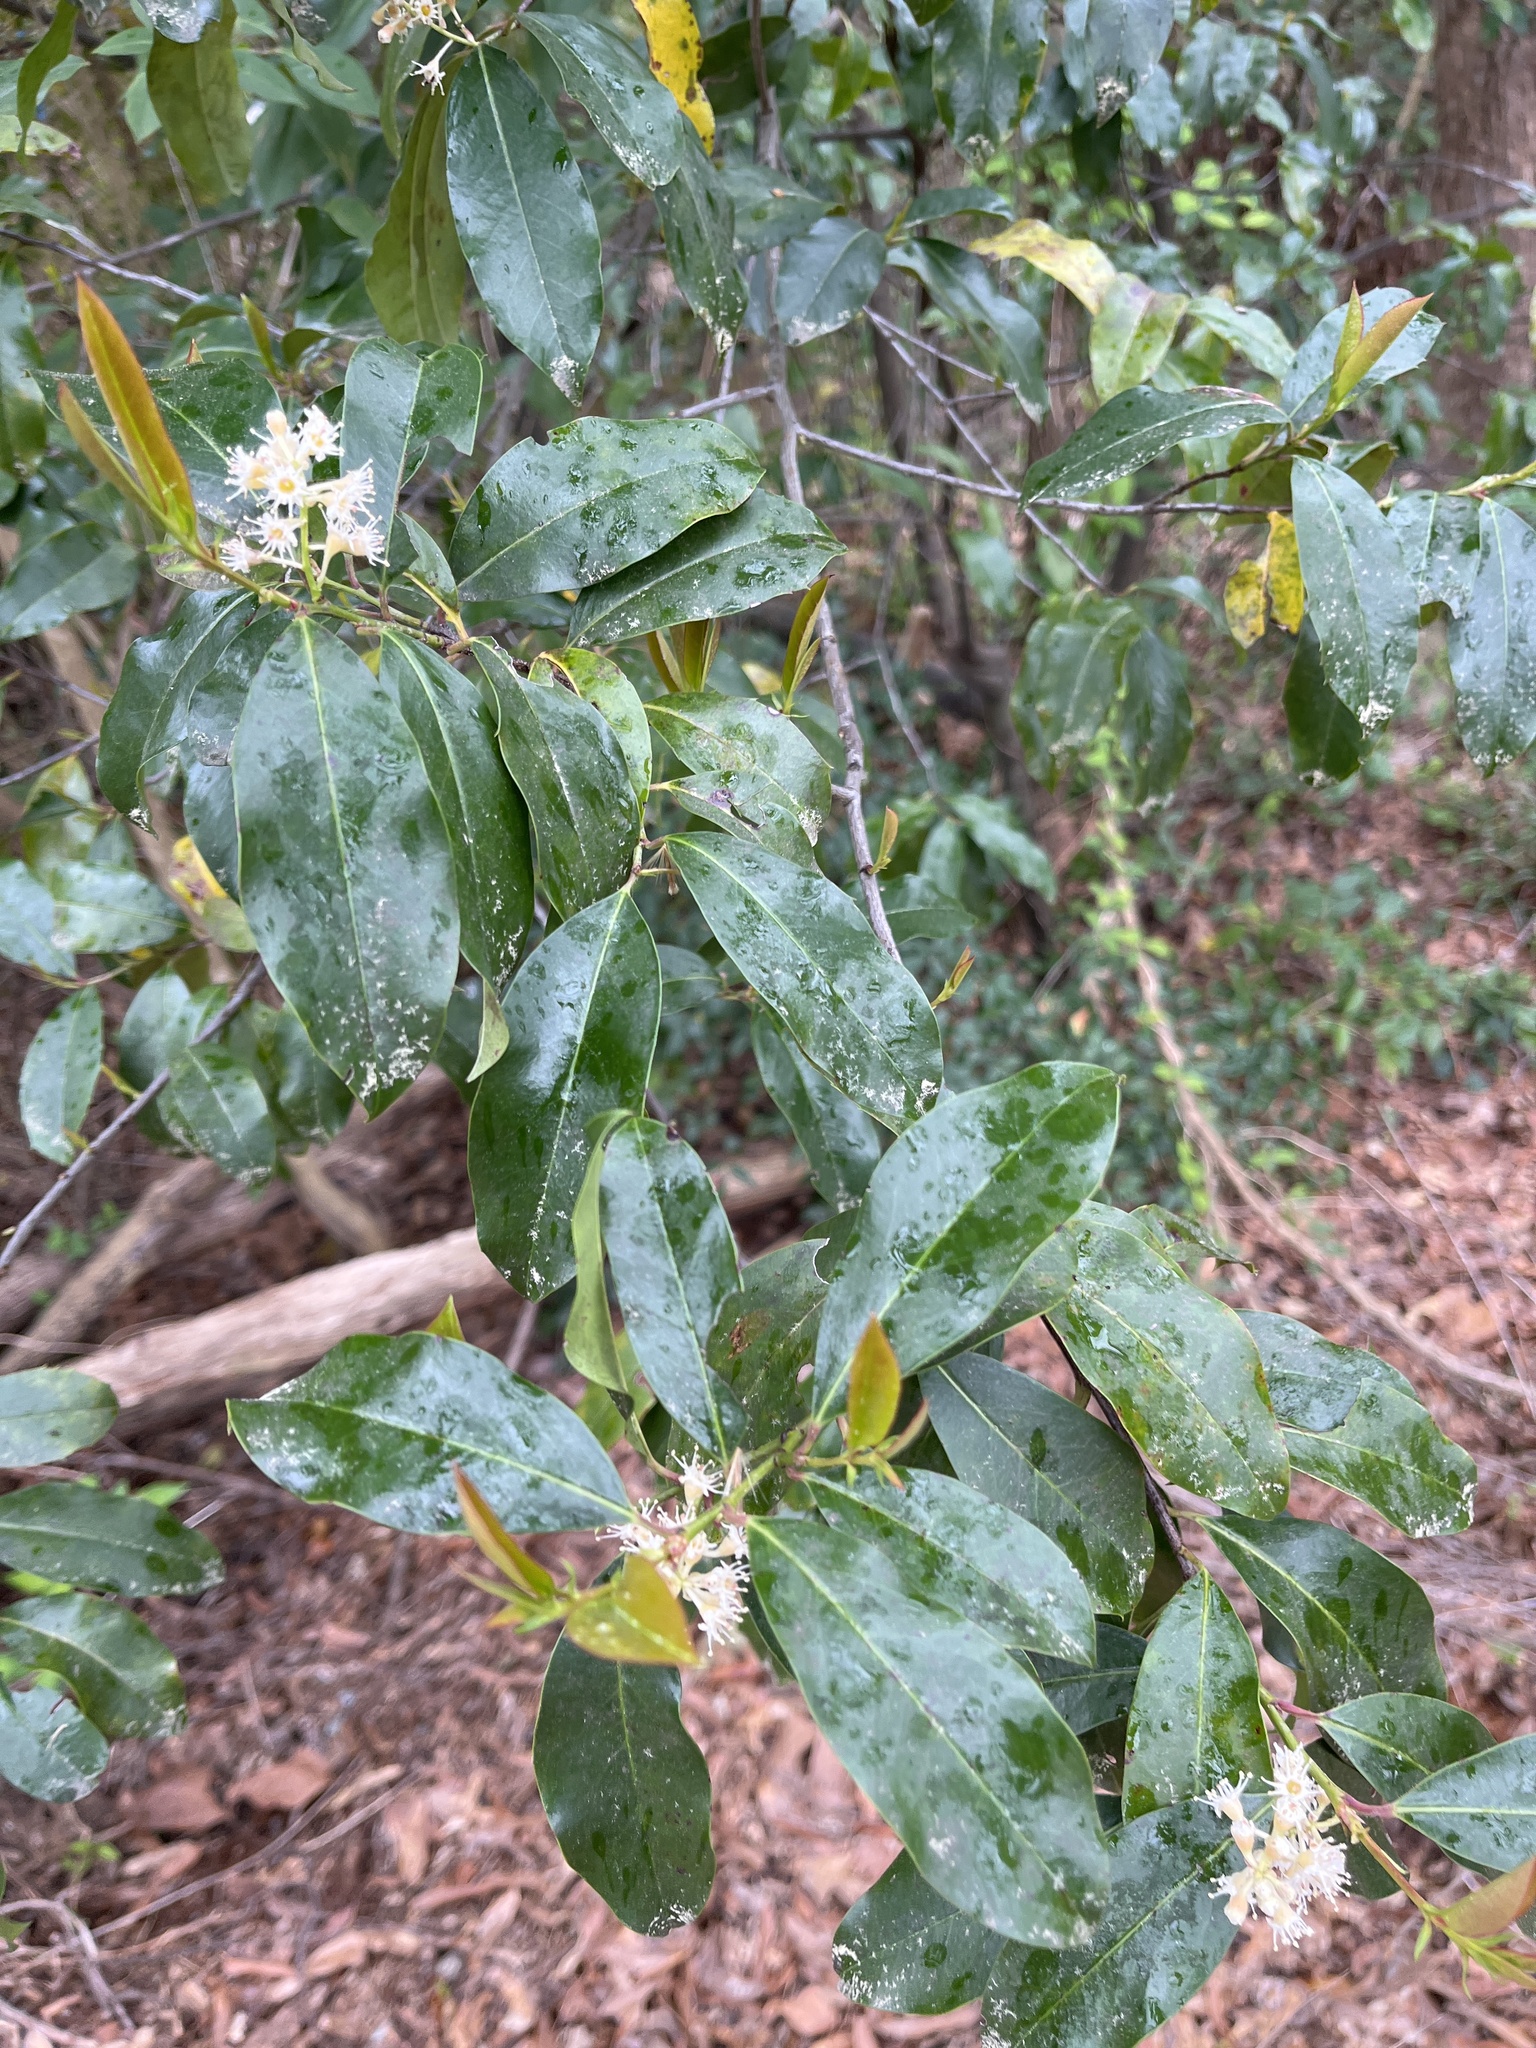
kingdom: Plantae
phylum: Tracheophyta
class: Magnoliopsida
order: Rosales
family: Rosaceae
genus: Prunus
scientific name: Prunus caroliniana
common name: Carolina laurel cherry
